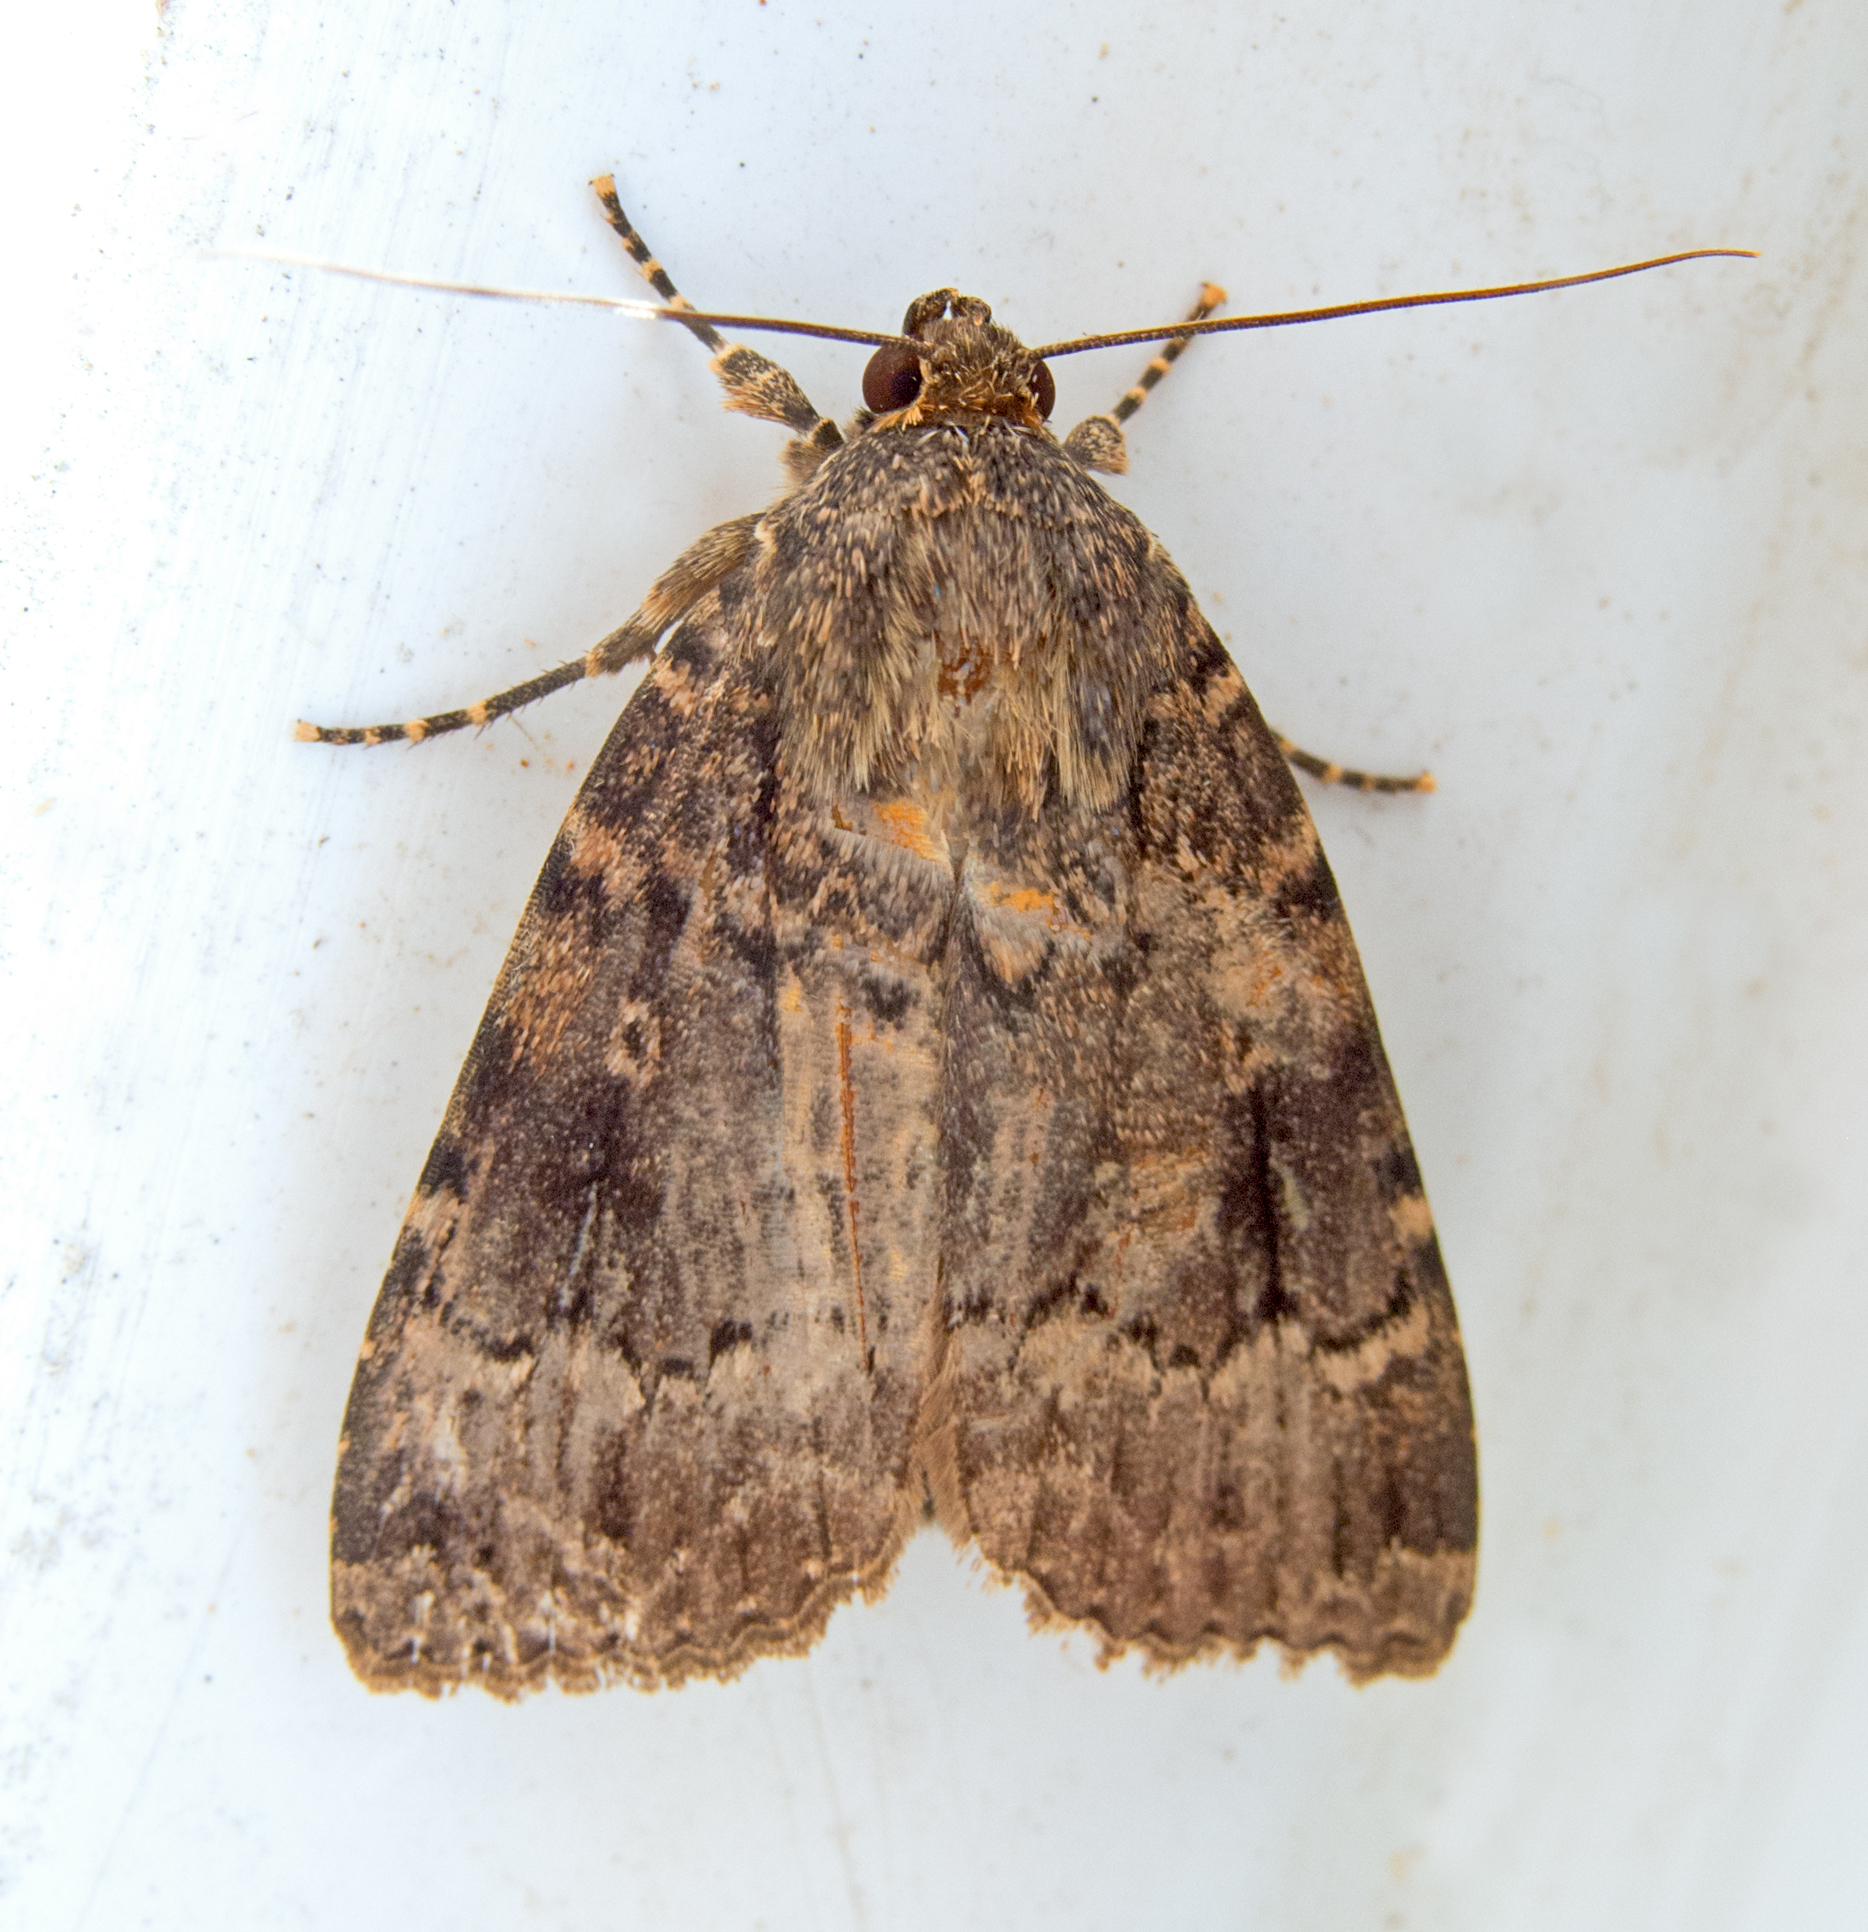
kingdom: Animalia
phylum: Arthropoda
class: Insecta
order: Lepidoptera
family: Noctuidae
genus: Amphipyra
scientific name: Amphipyra
